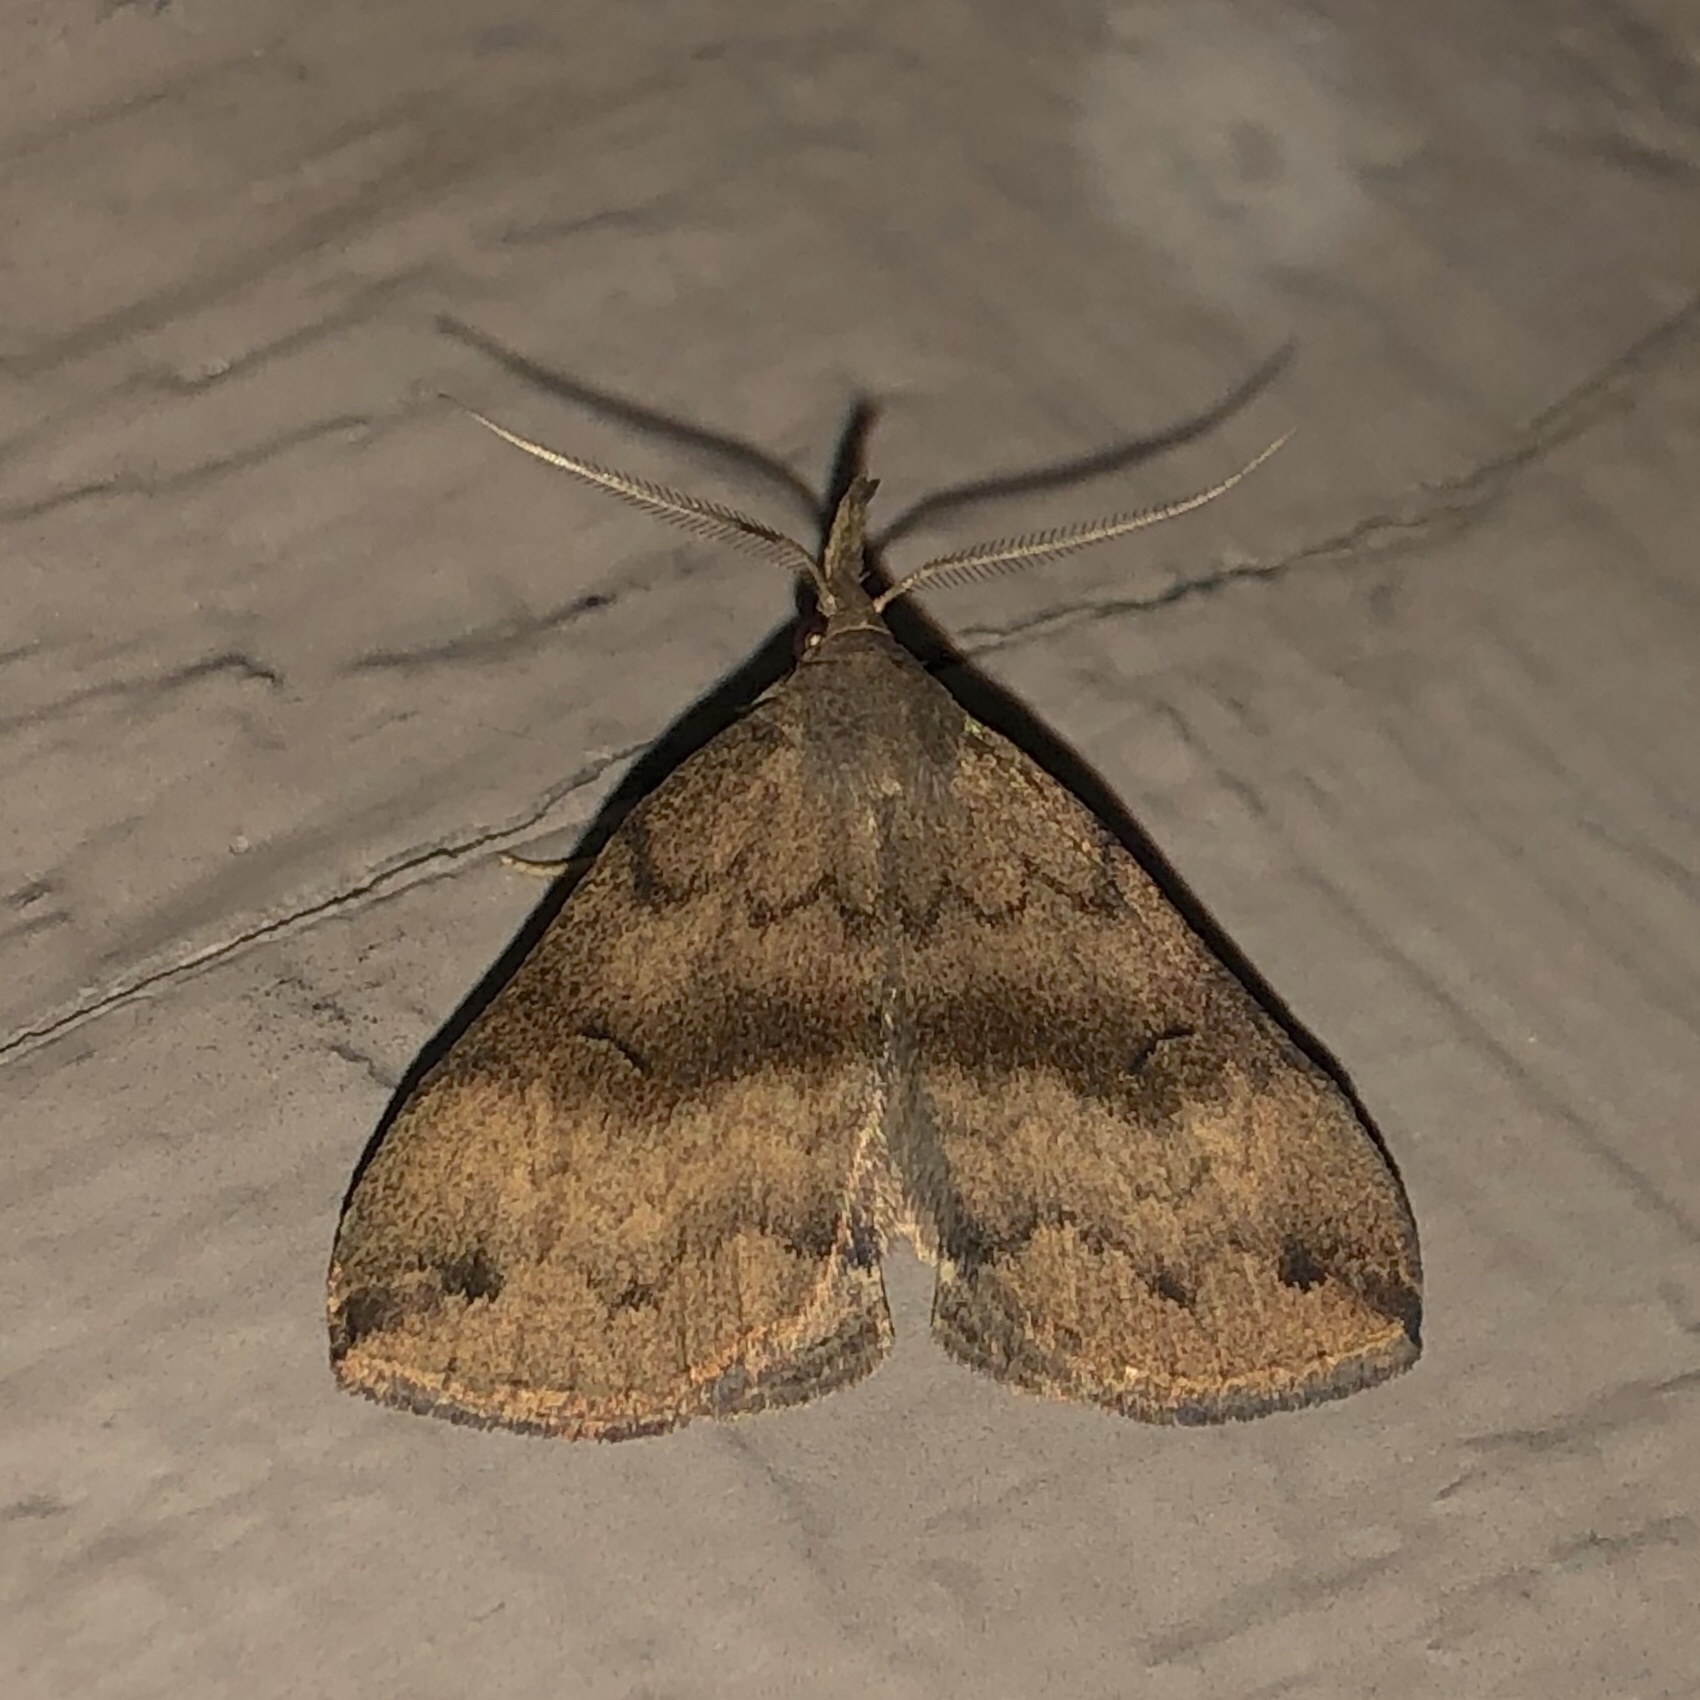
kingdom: Animalia
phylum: Arthropoda
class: Insecta
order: Lepidoptera
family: Erebidae
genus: Phalaenostola
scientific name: Phalaenostola eumelusalis
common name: Dark phalaenostola moth
